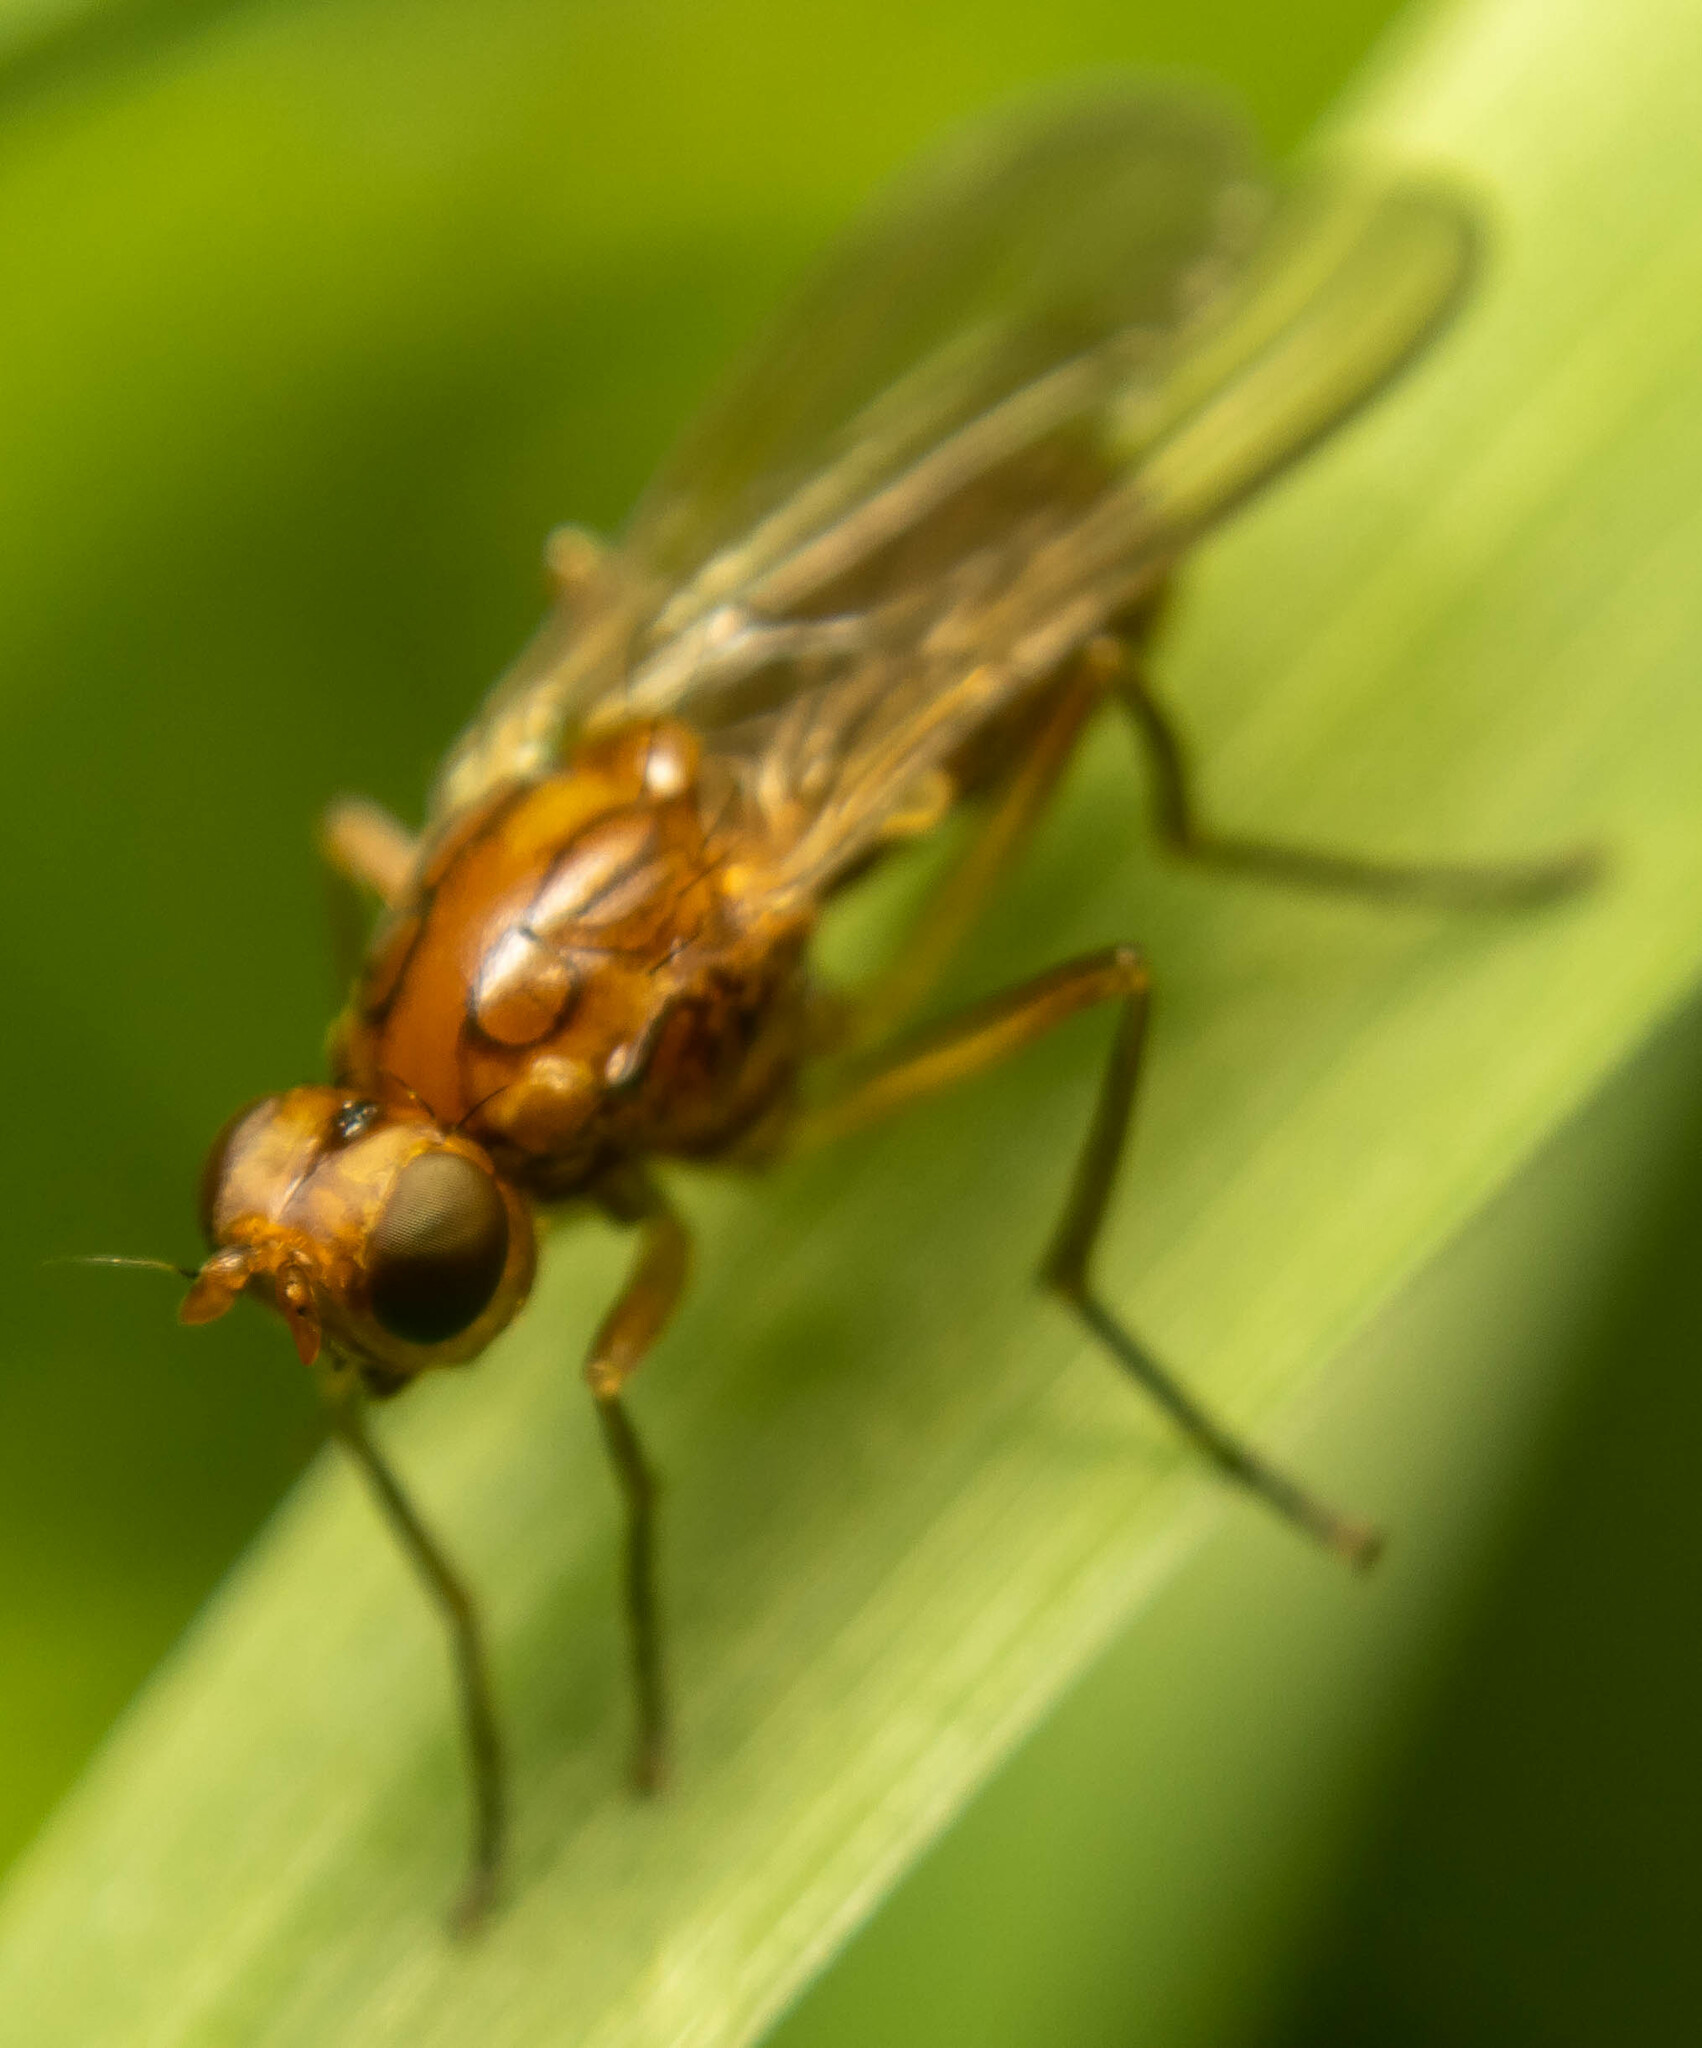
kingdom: Animalia
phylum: Arthropoda
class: Insecta
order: Diptera
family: Psilidae
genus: Psila
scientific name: Psila fimetaria
